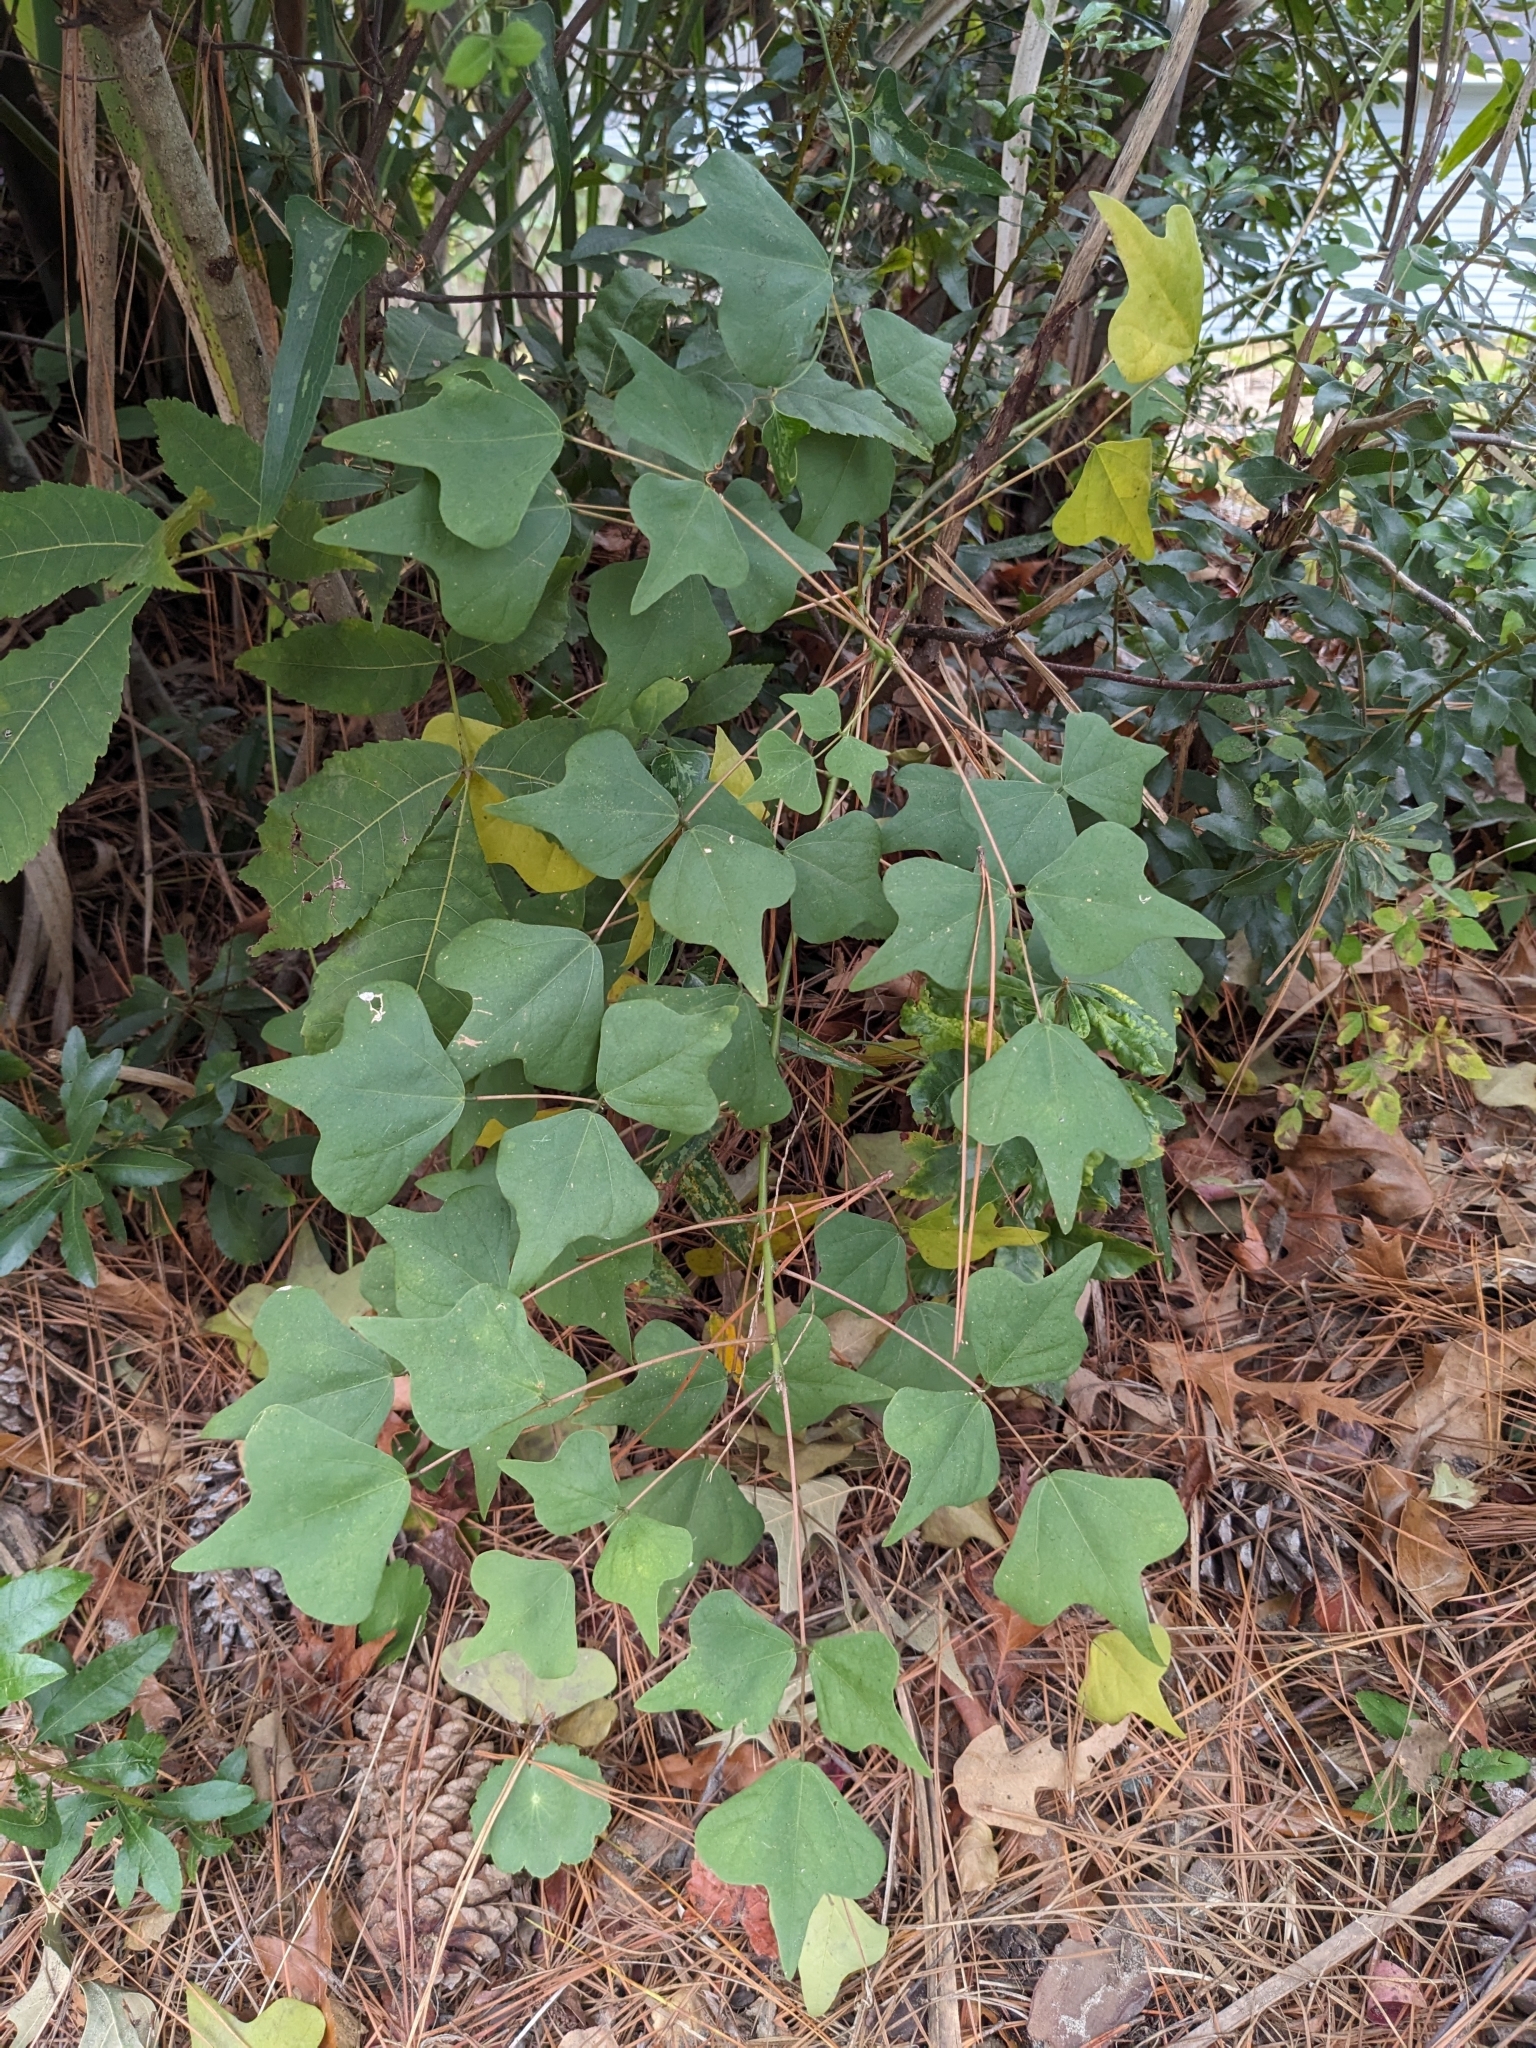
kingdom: Plantae
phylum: Tracheophyta
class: Magnoliopsida
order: Fabales
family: Fabaceae
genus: Erythrina
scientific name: Erythrina herbacea
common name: Coral-bean
